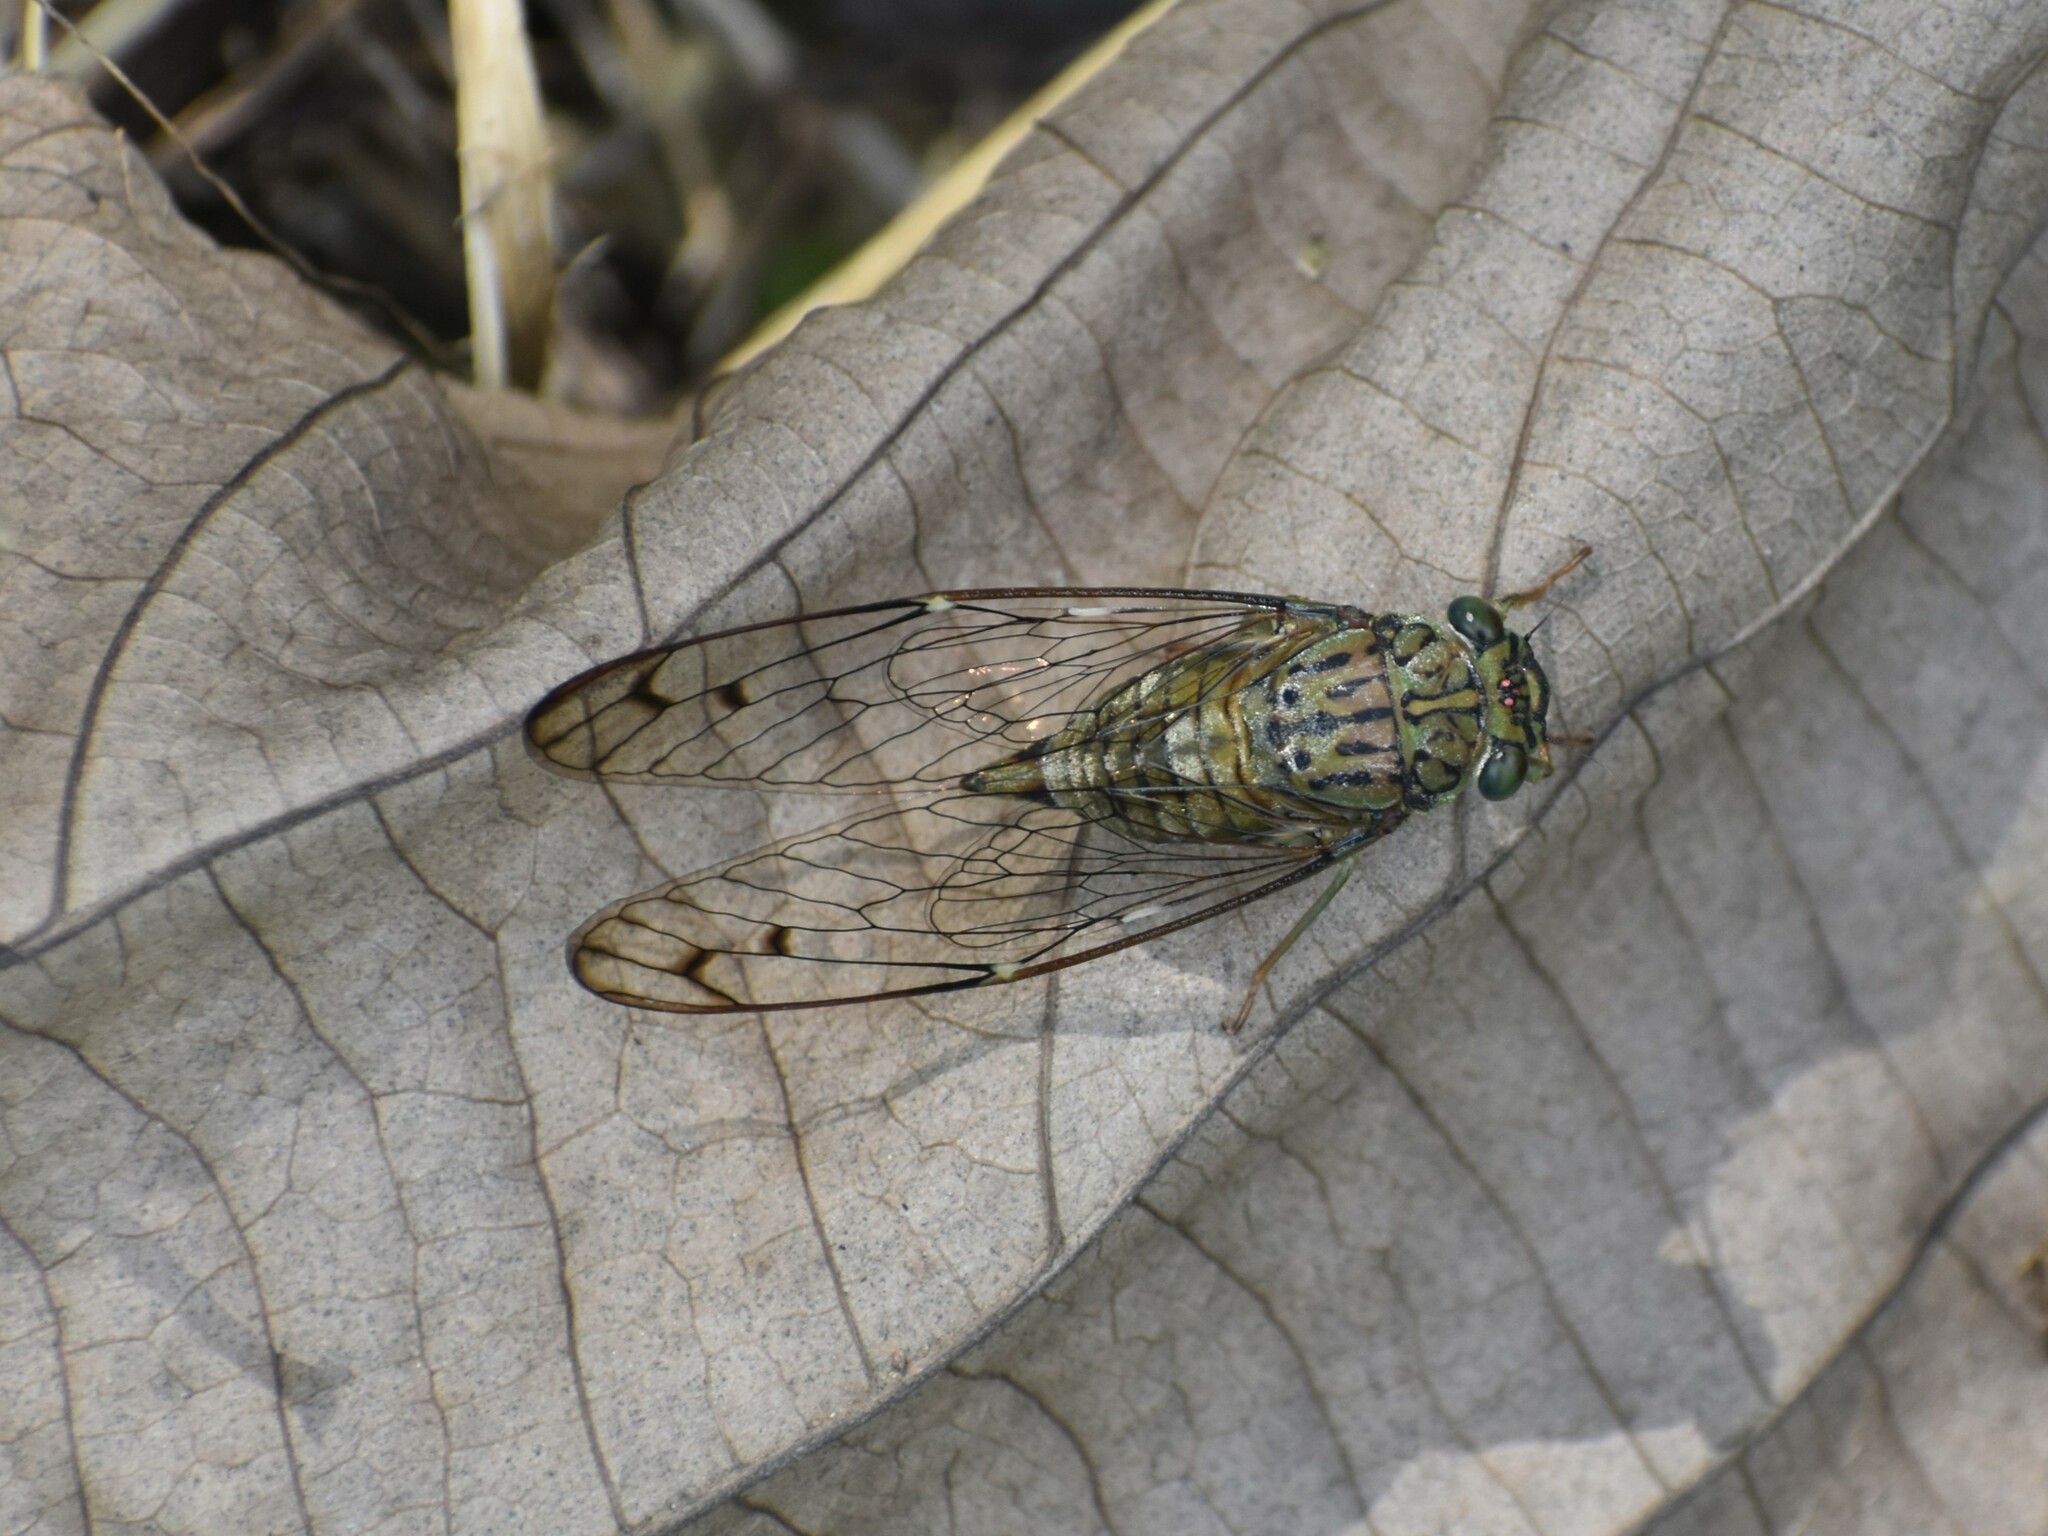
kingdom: Animalia
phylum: Arthropoda
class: Insecta
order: Hemiptera
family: Cicadidae
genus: Purana
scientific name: Purana tigrina
